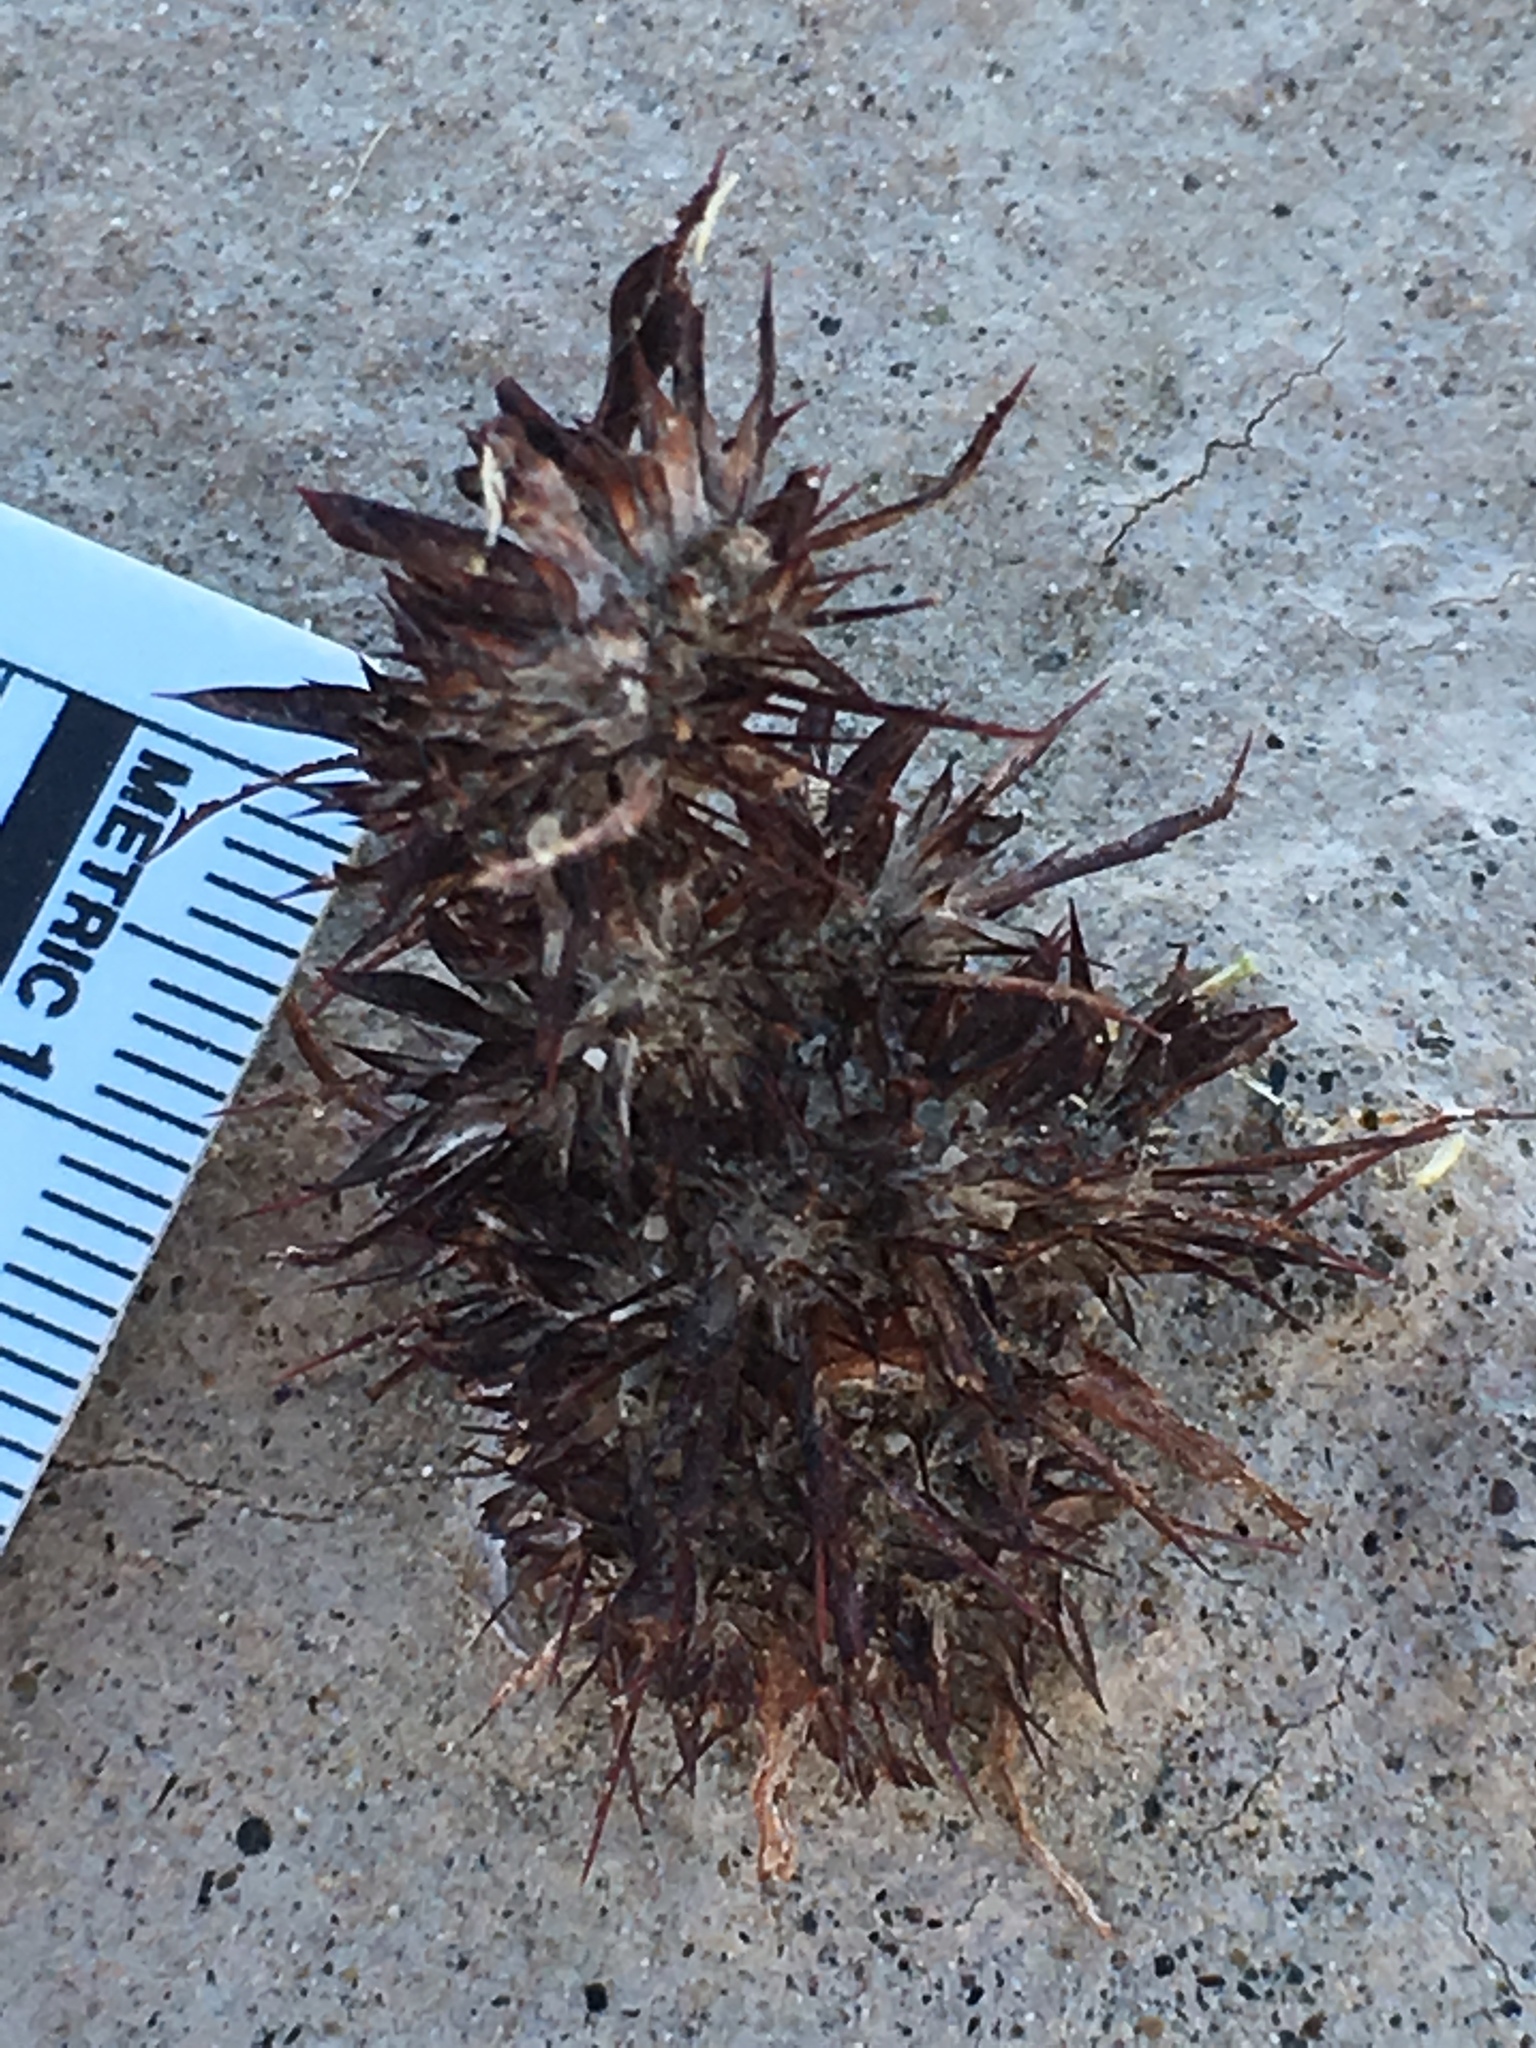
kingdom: Plantae
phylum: Tracheophyta
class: Magnoliopsida
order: Caryophyllales
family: Polygonaceae
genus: Chorizanthe
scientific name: Chorizanthe rigida
